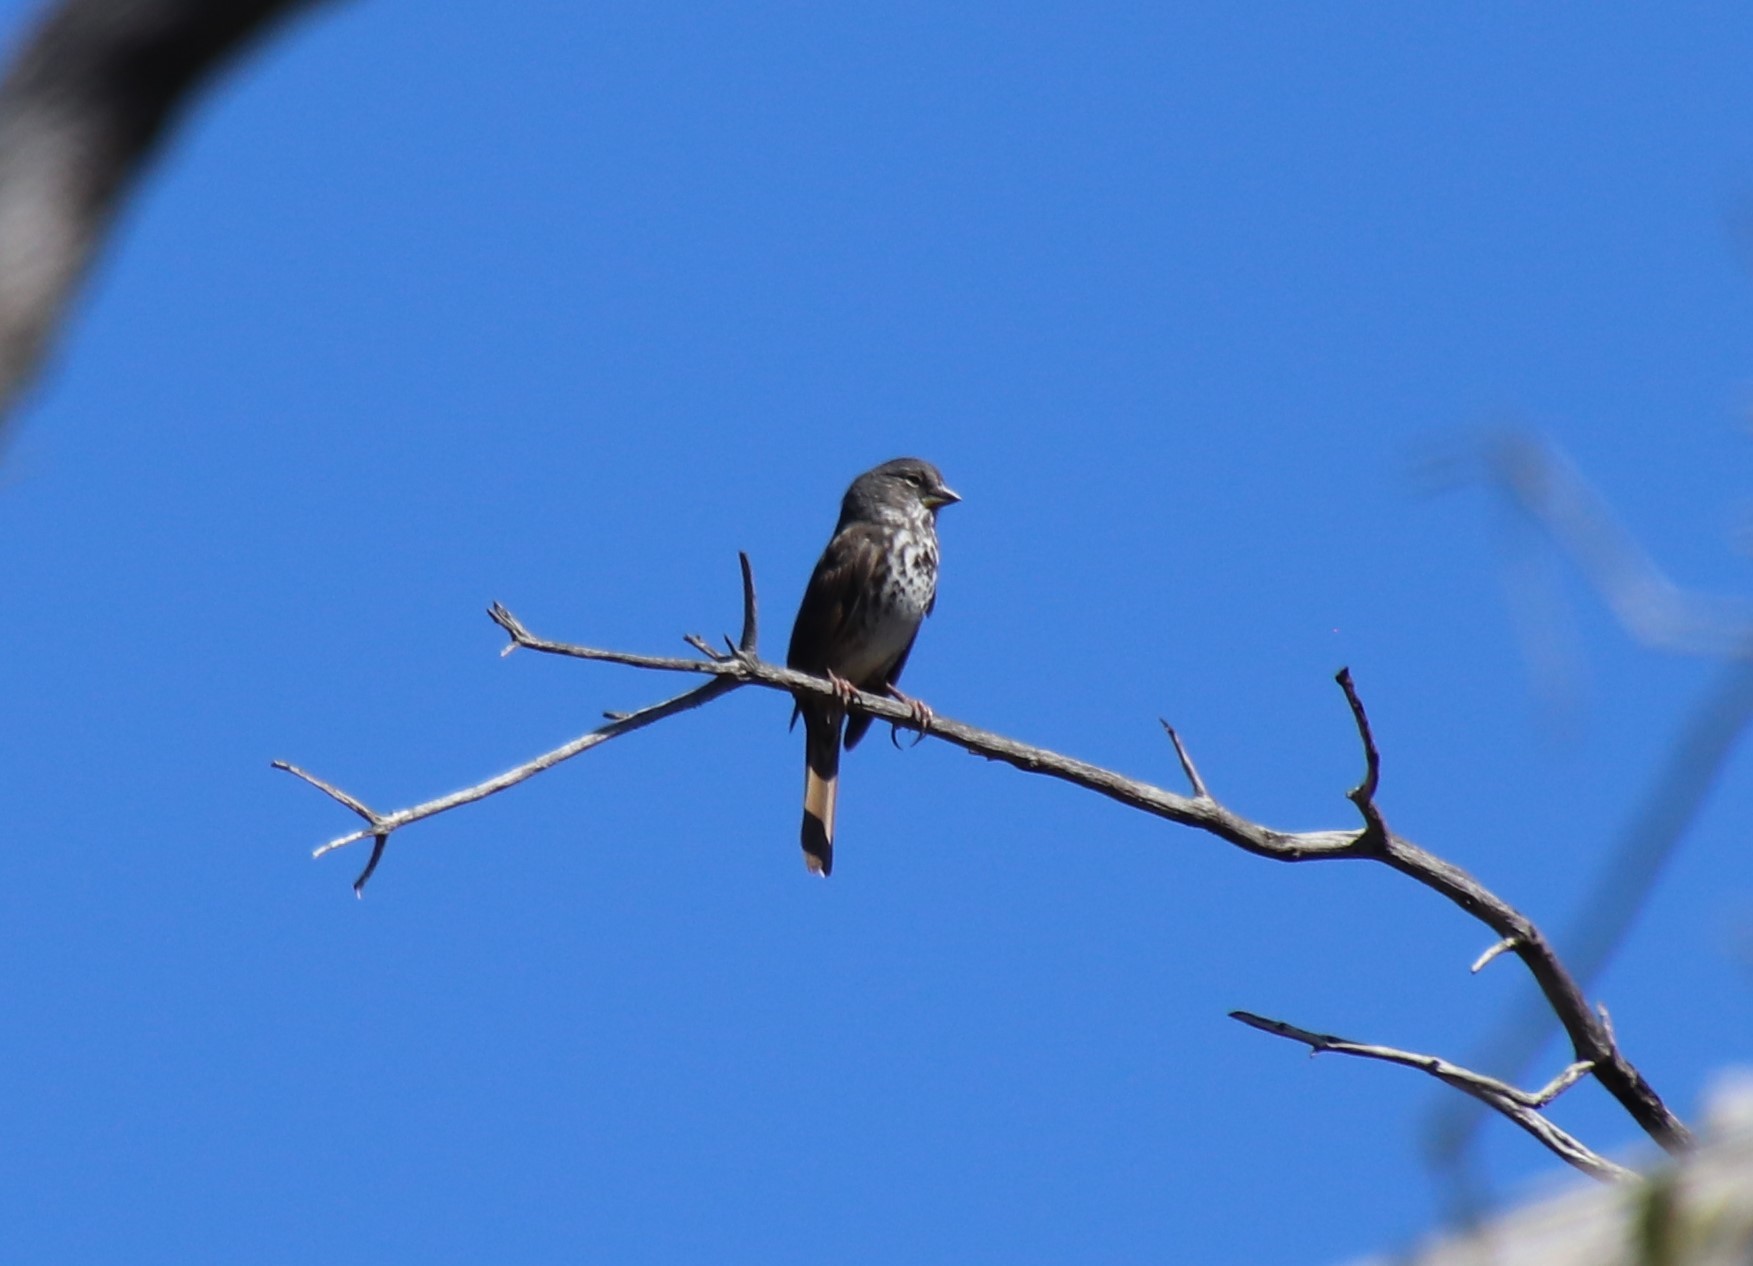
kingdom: Animalia
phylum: Chordata
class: Aves
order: Passeriformes
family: Passerellidae
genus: Passerella
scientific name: Passerella iliaca
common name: Fox sparrow
